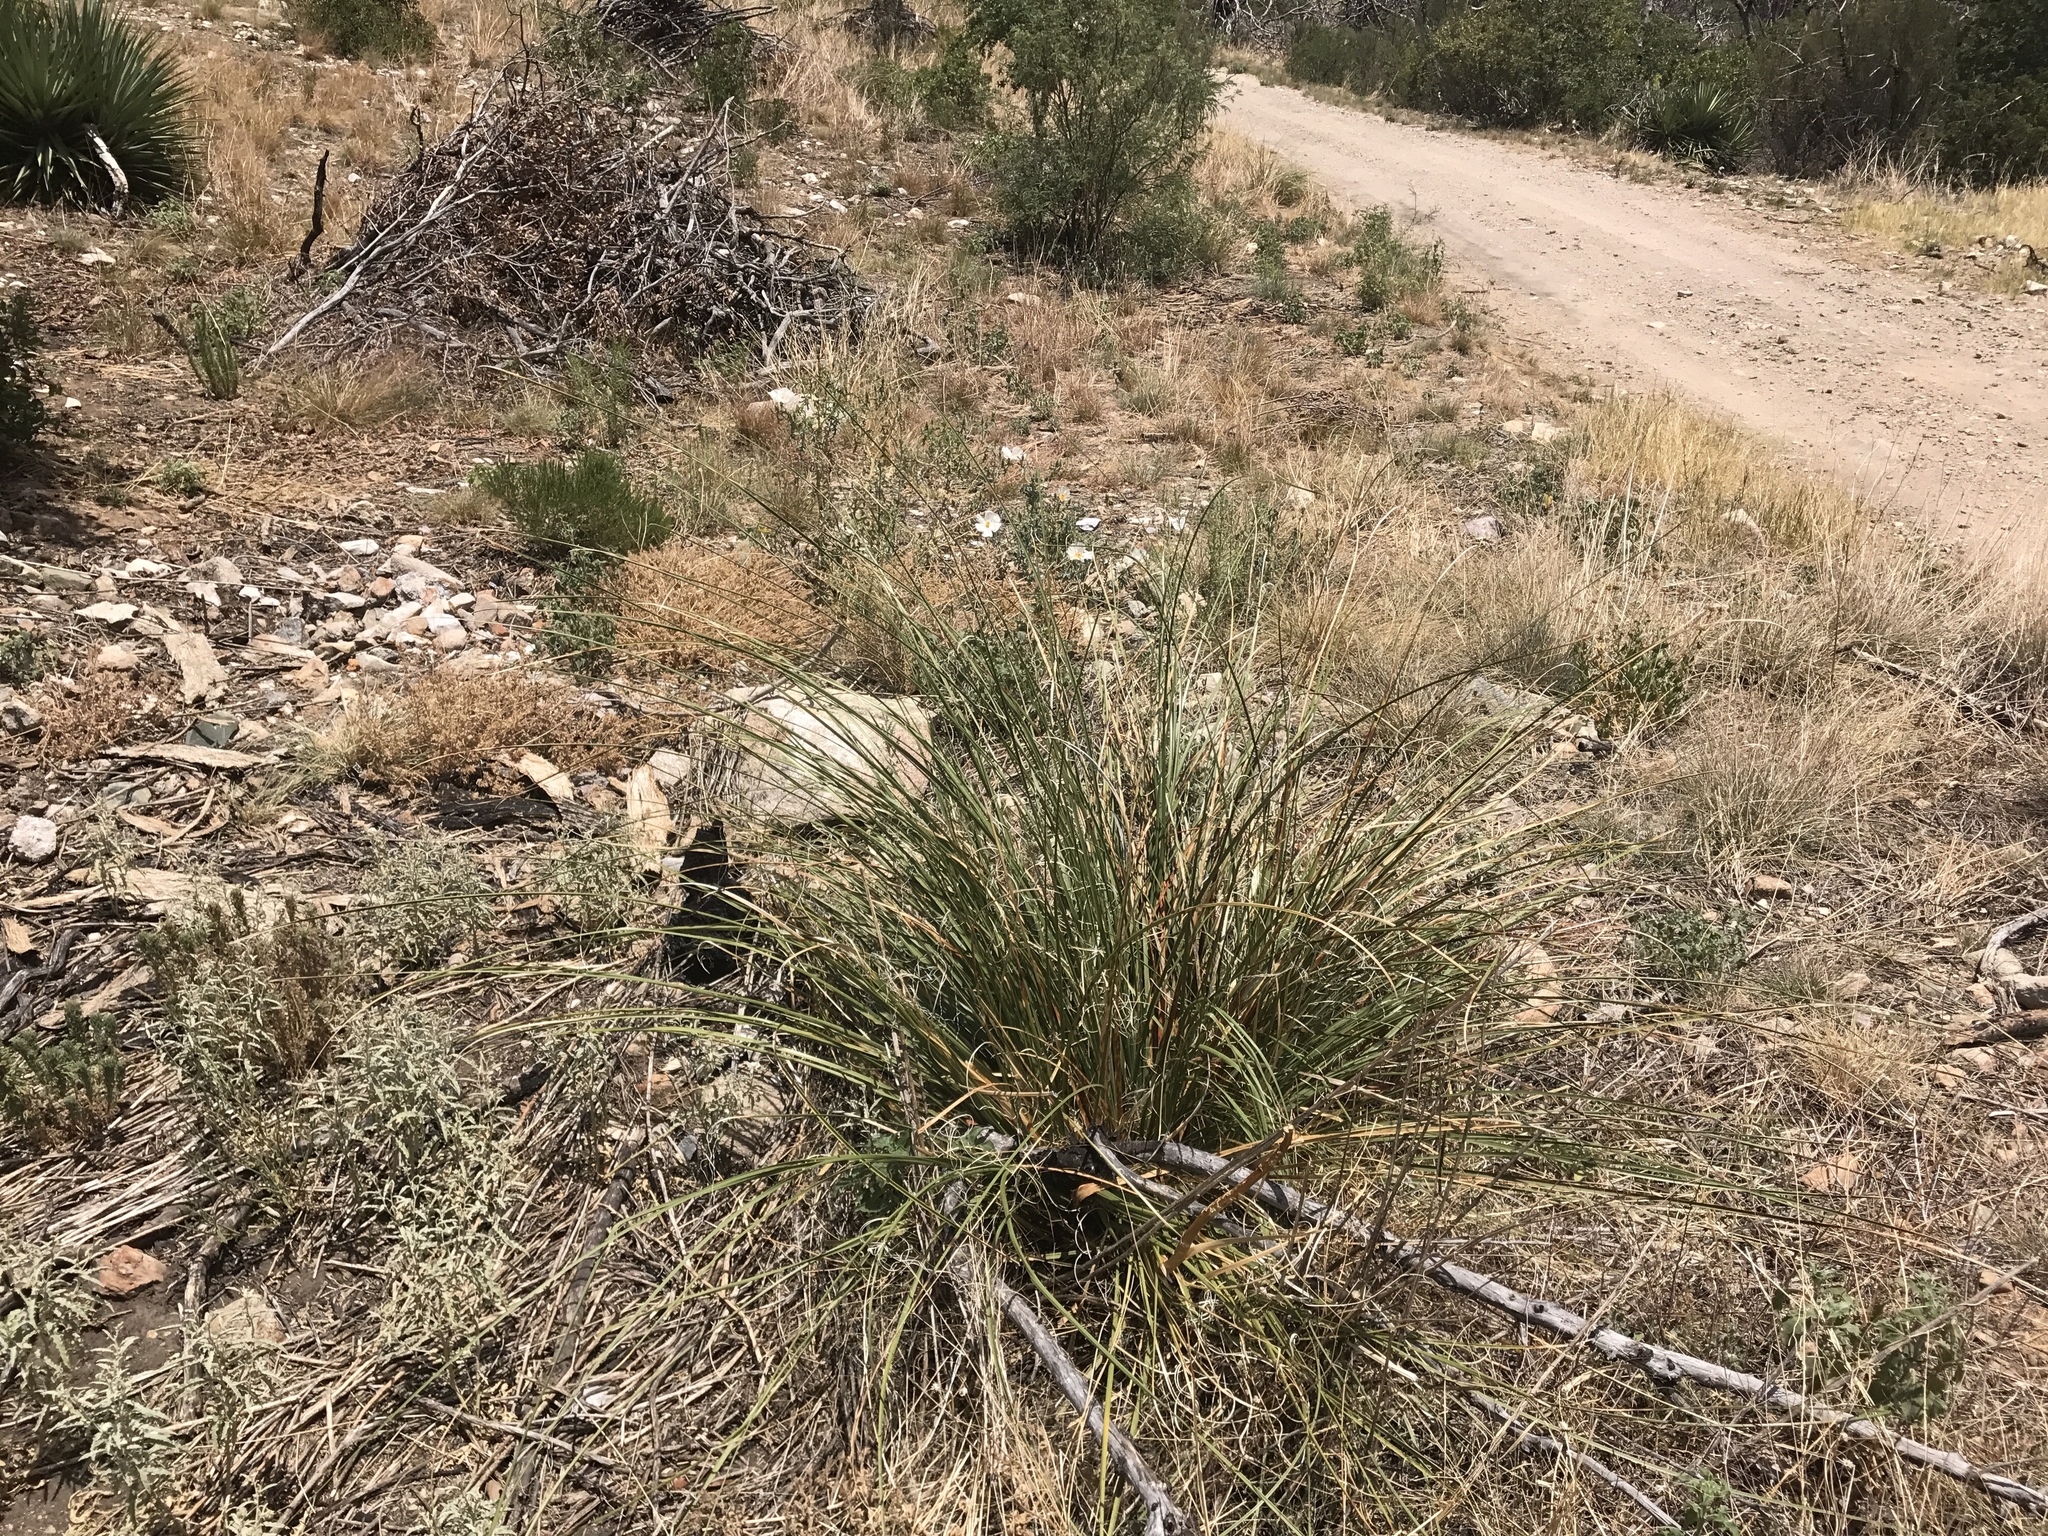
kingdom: Plantae
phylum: Tracheophyta
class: Liliopsida
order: Asparagales
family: Asparagaceae
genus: Nolina
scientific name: Nolina microcarpa
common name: Bear-grass
